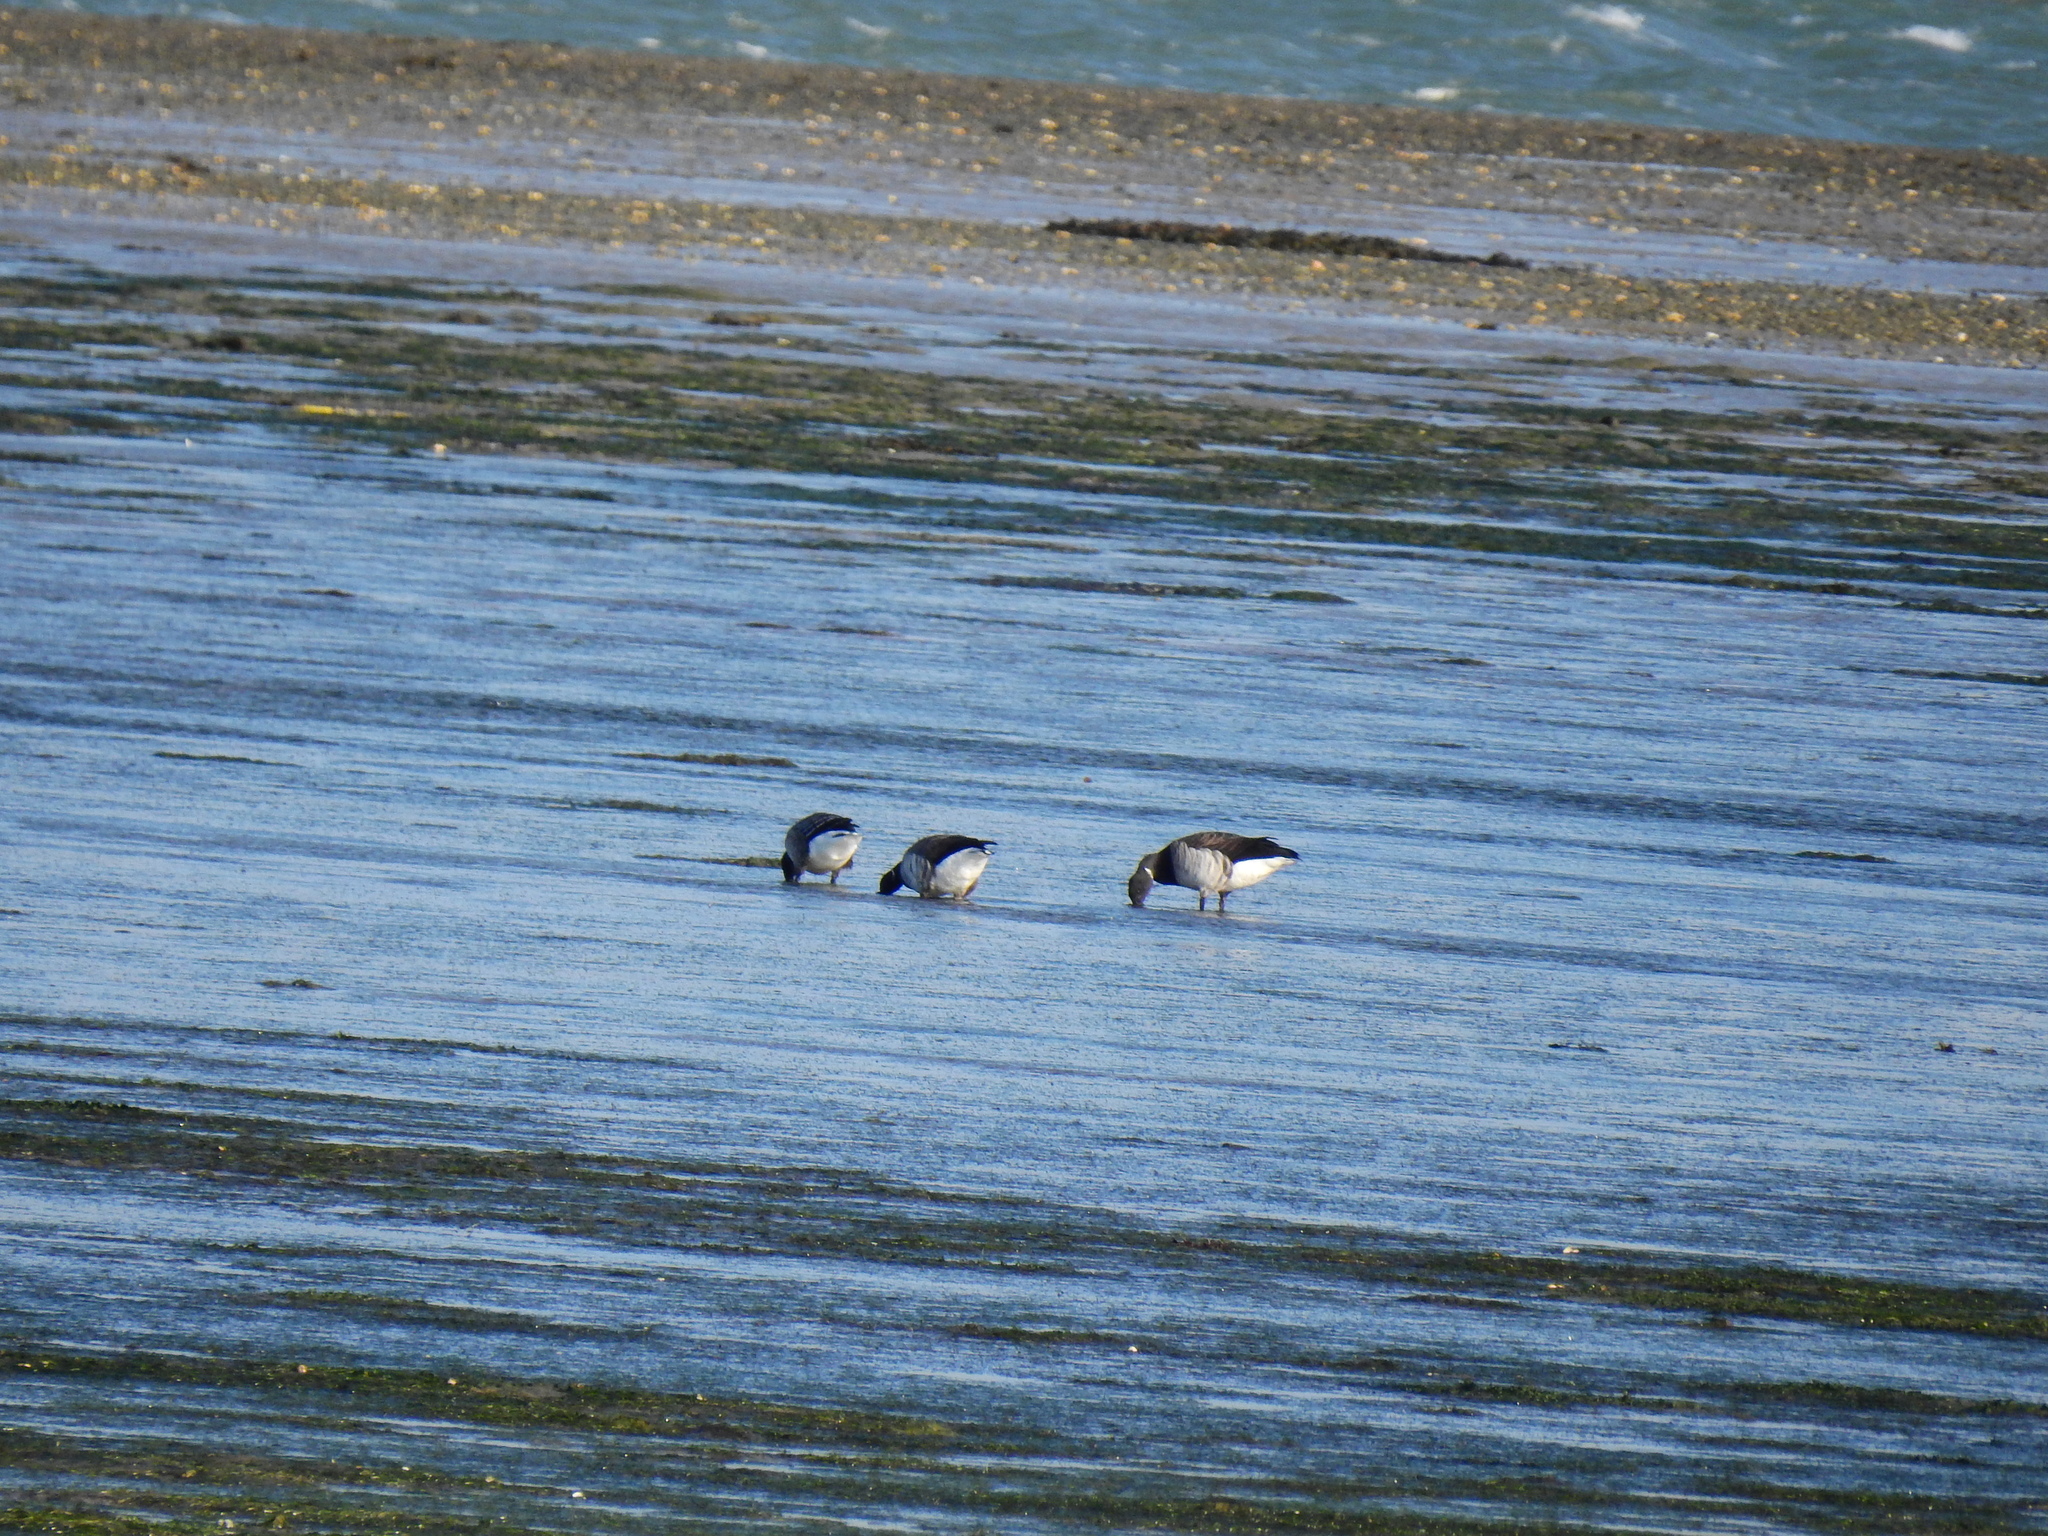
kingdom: Animalia
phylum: Chordata
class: Aves
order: Anseriformes
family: Anatidae
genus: Branta
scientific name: Branta bernicla
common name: Brant goose
